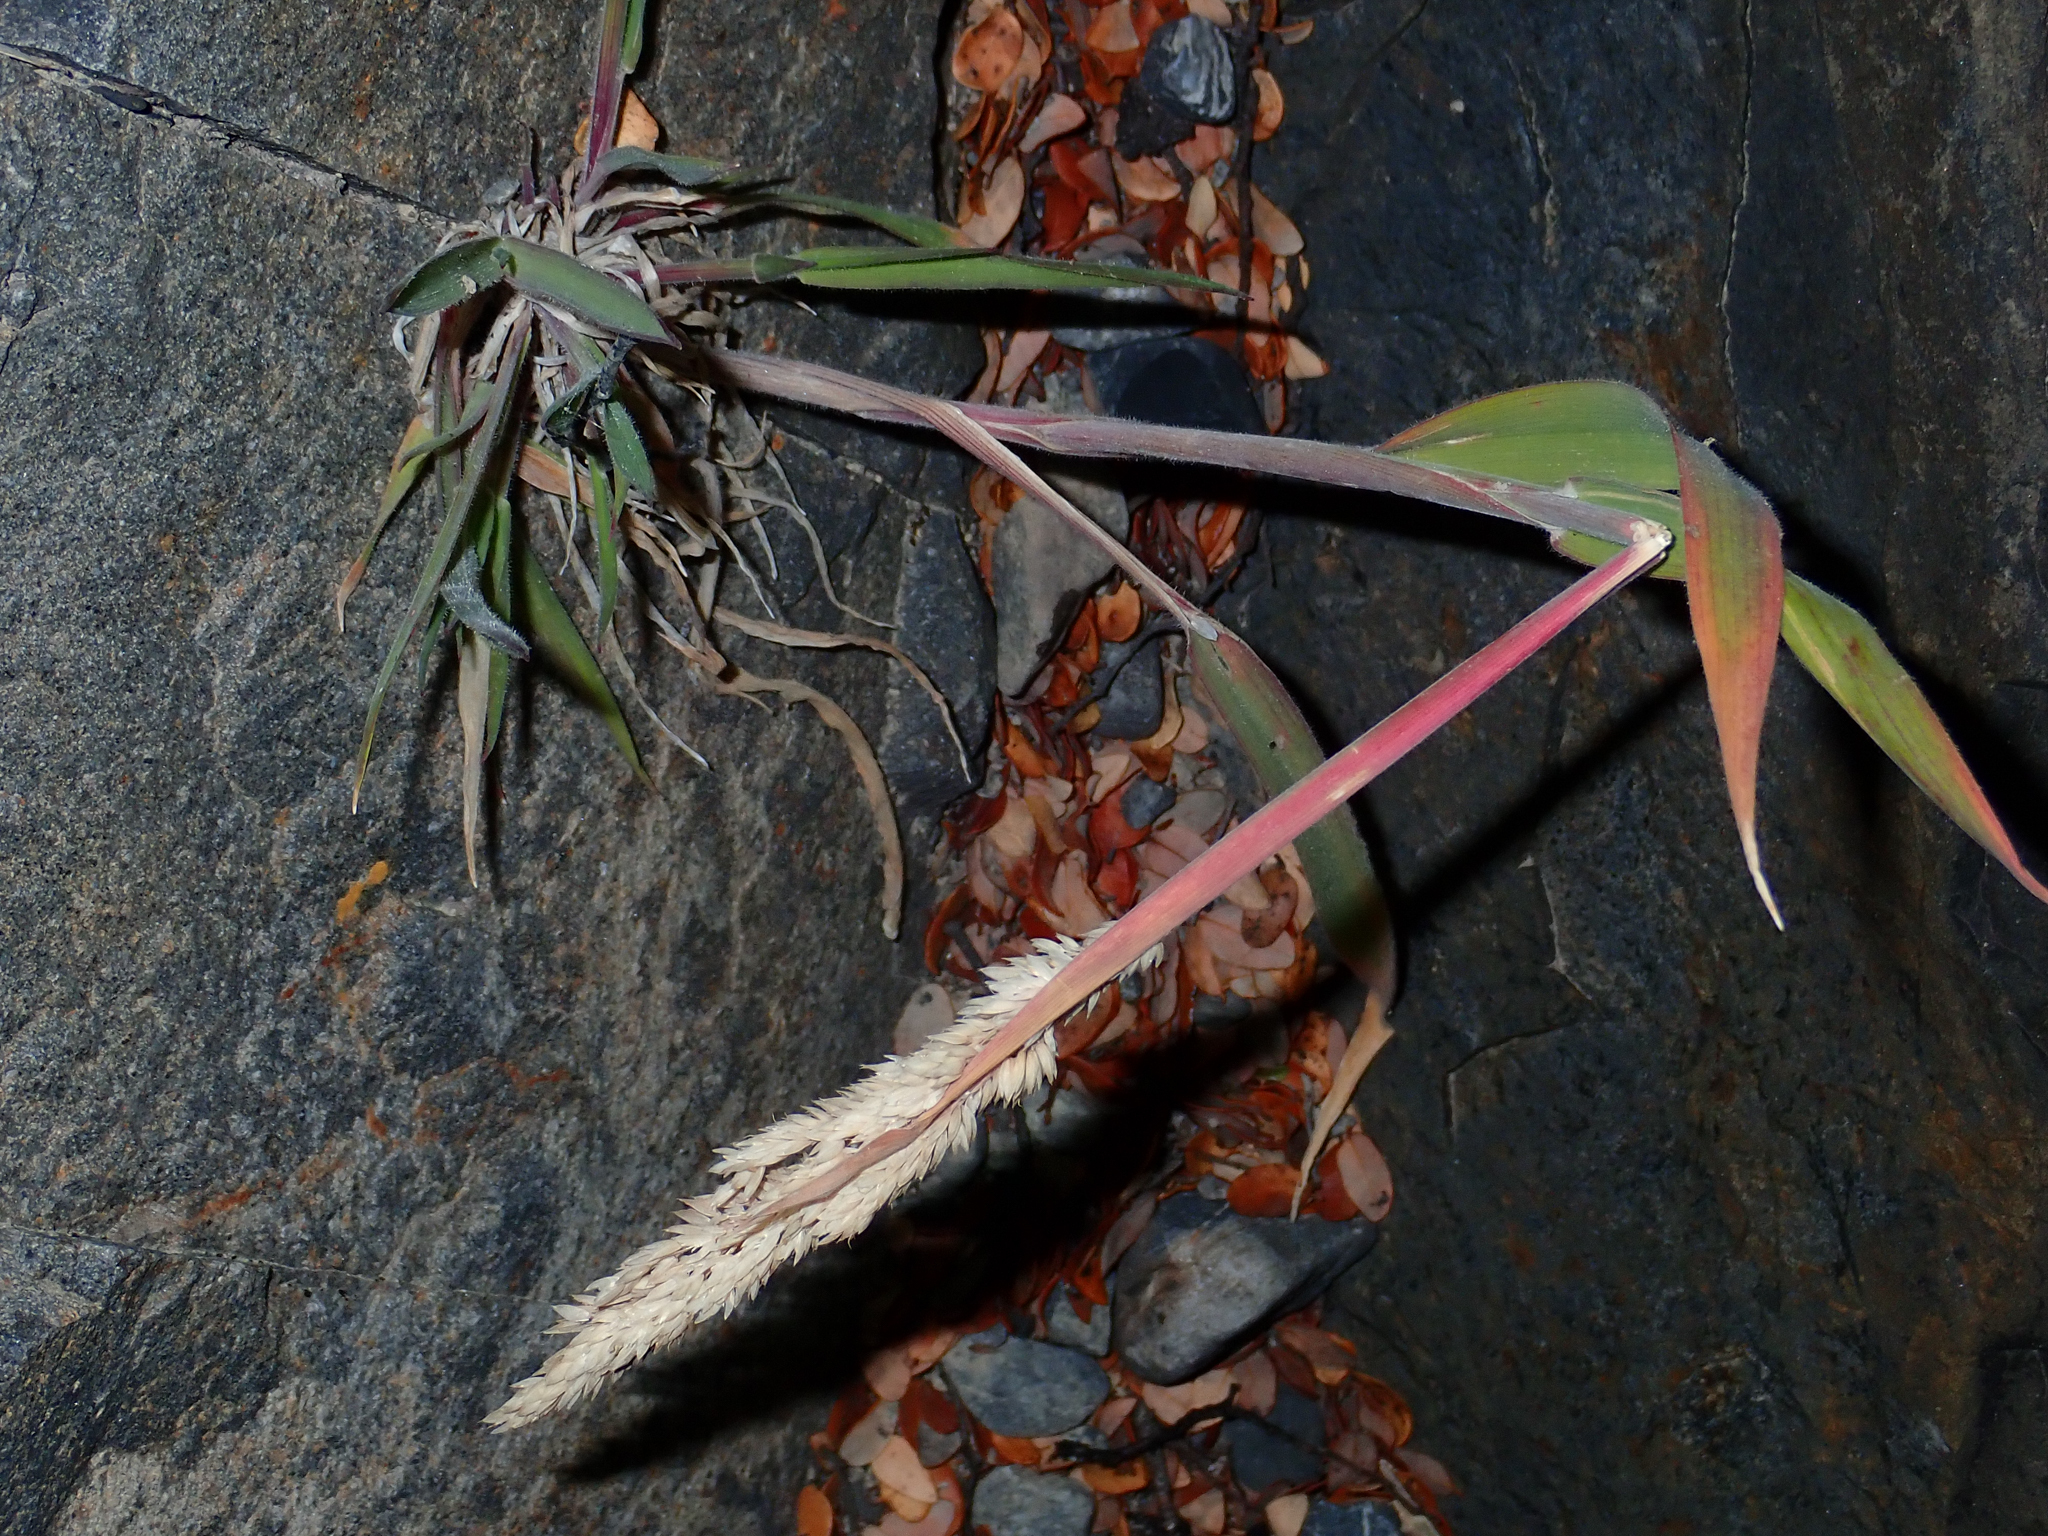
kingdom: Plantae
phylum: Tracheophyta
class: Liliopsida
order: Poales
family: Poaceae
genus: Holcus
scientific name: Holcus lanatus
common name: Yorkshire-fog
